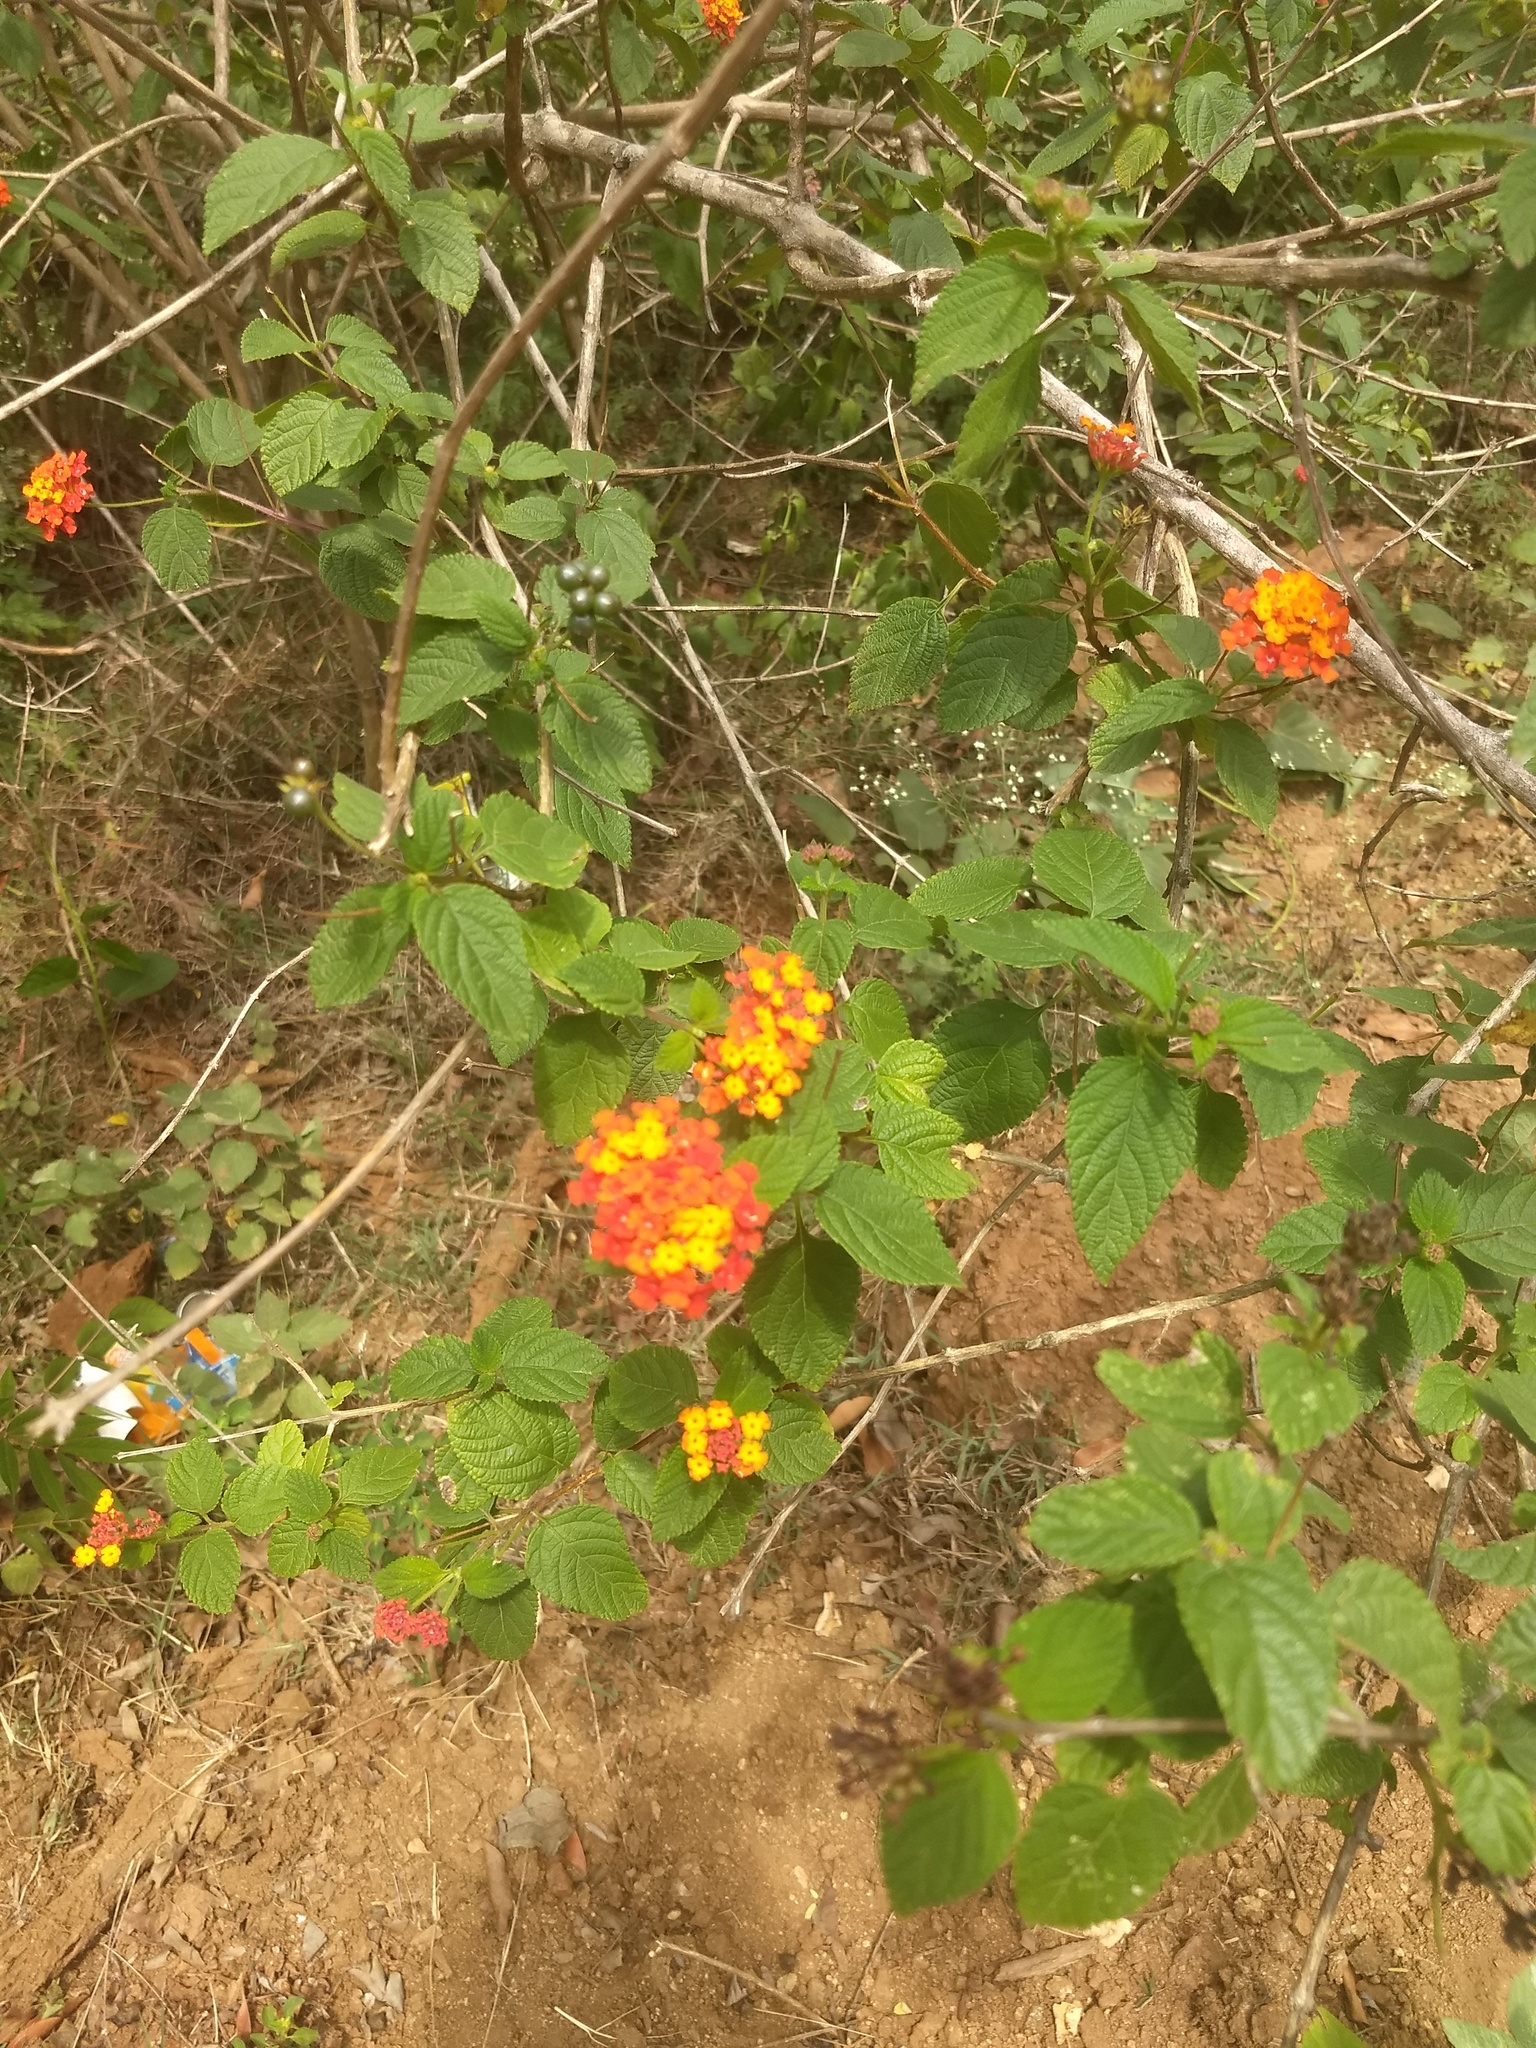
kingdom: Plantae
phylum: Tracheophyta
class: Magnoliopsida
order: Lamiales
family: Verbenaceae
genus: Lantana
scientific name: Lantana camara
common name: Lantana
